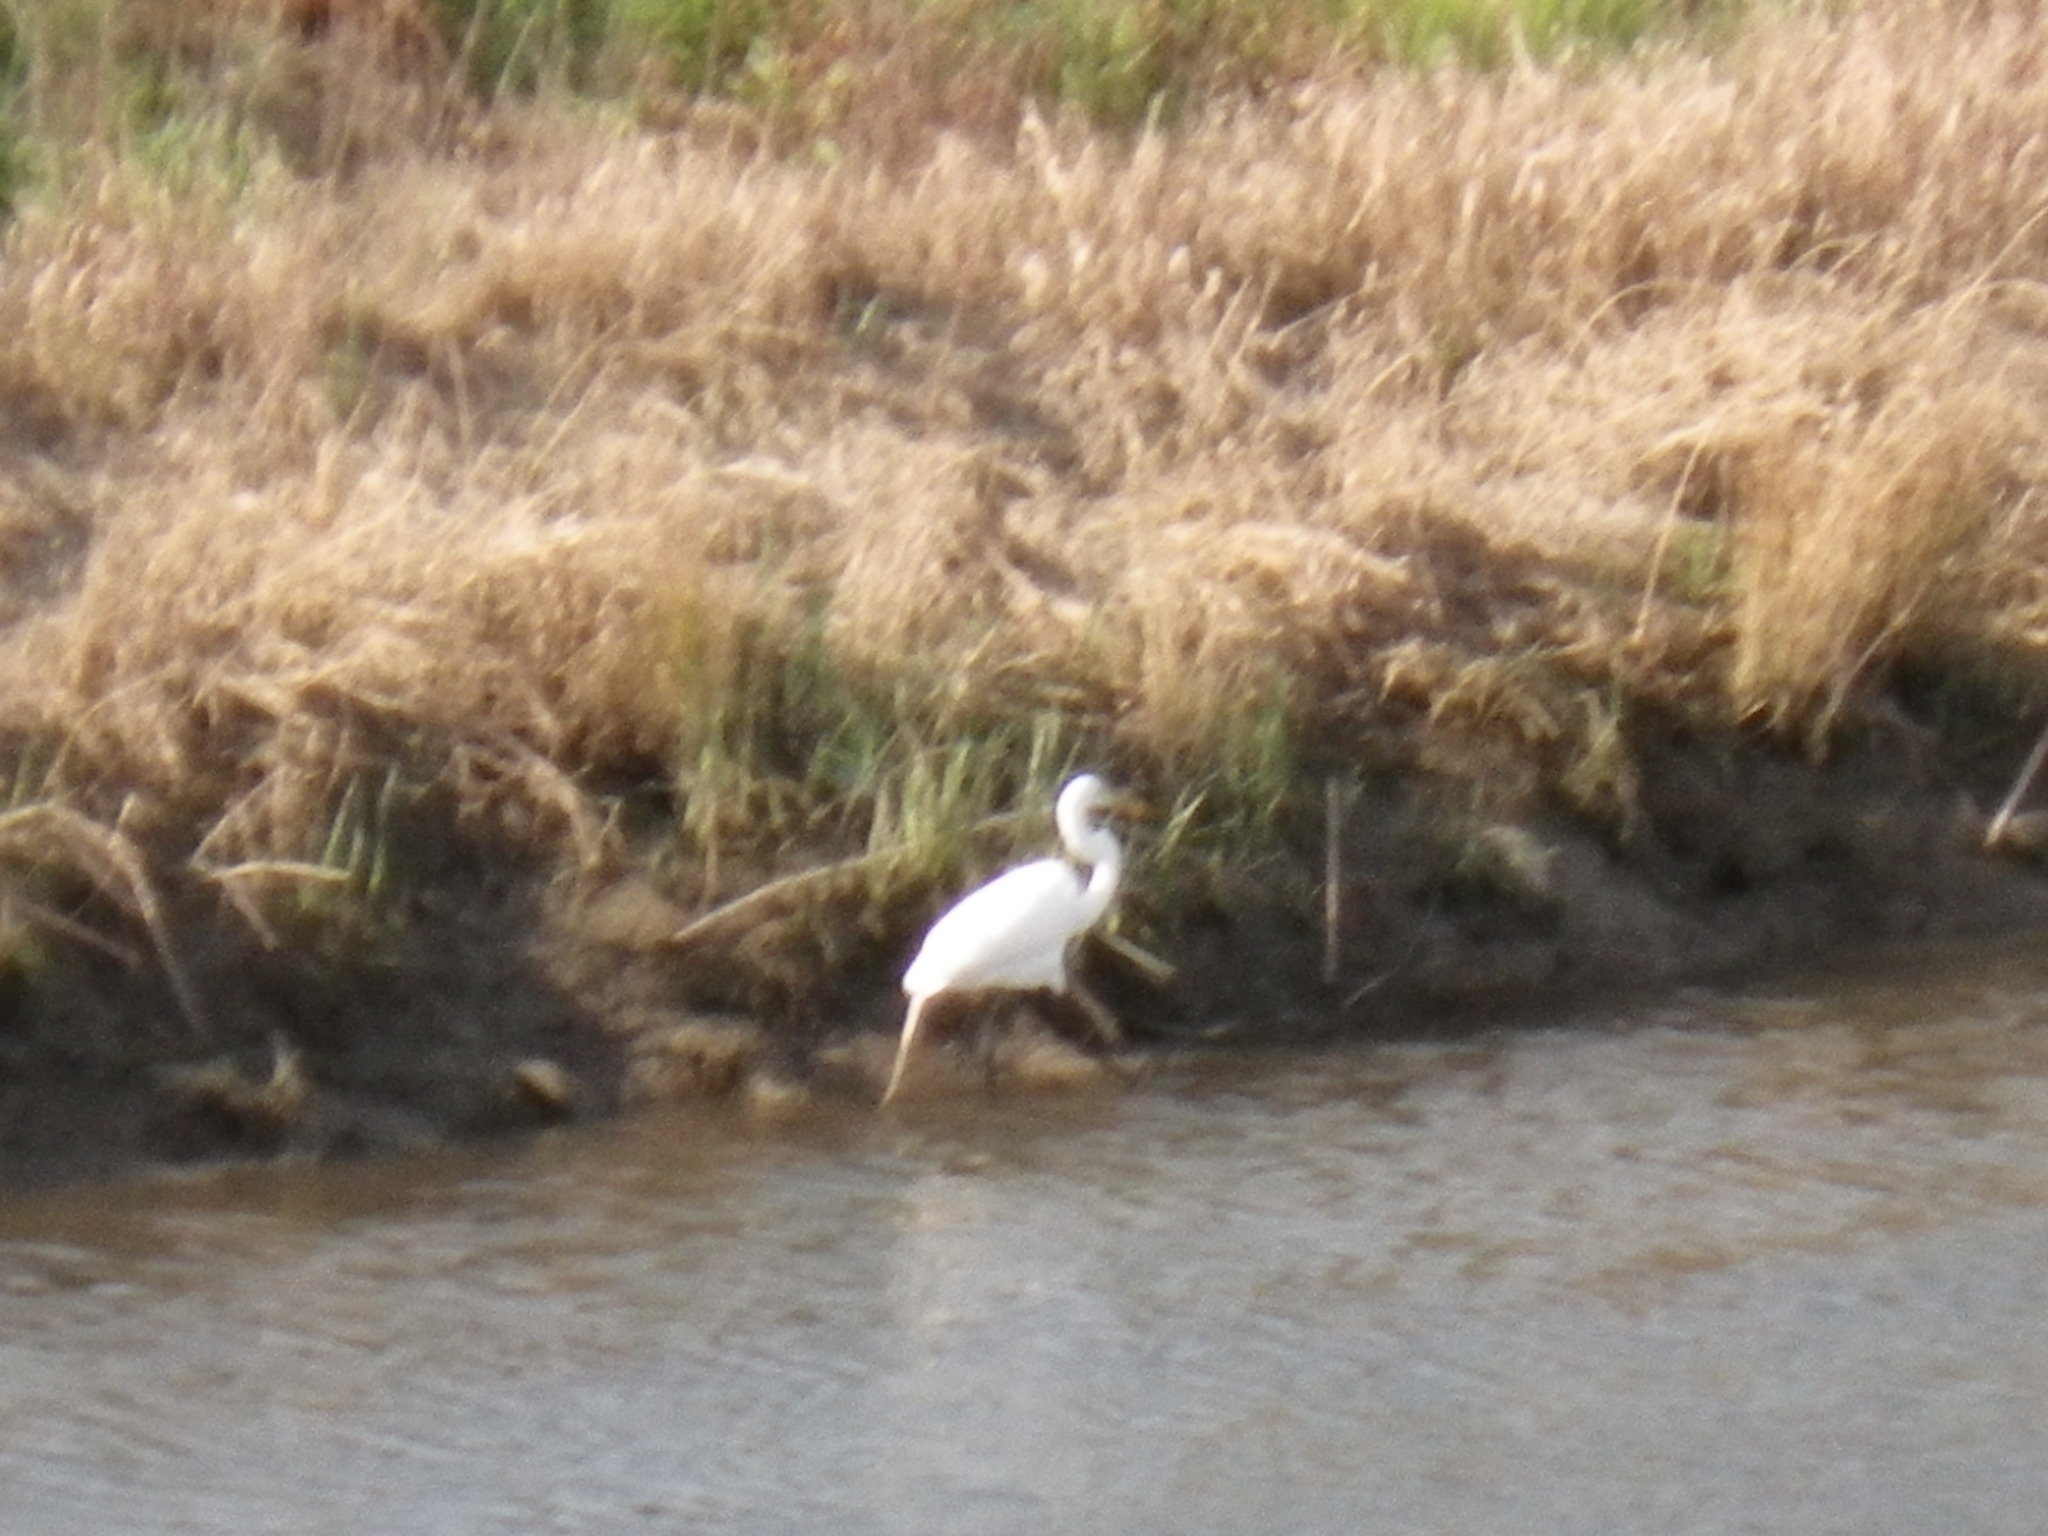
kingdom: Animalia
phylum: Chordata
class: Aves
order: Pelecaniformes
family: Ardeidae
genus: Ardea
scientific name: Ardea alba
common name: Great egret
